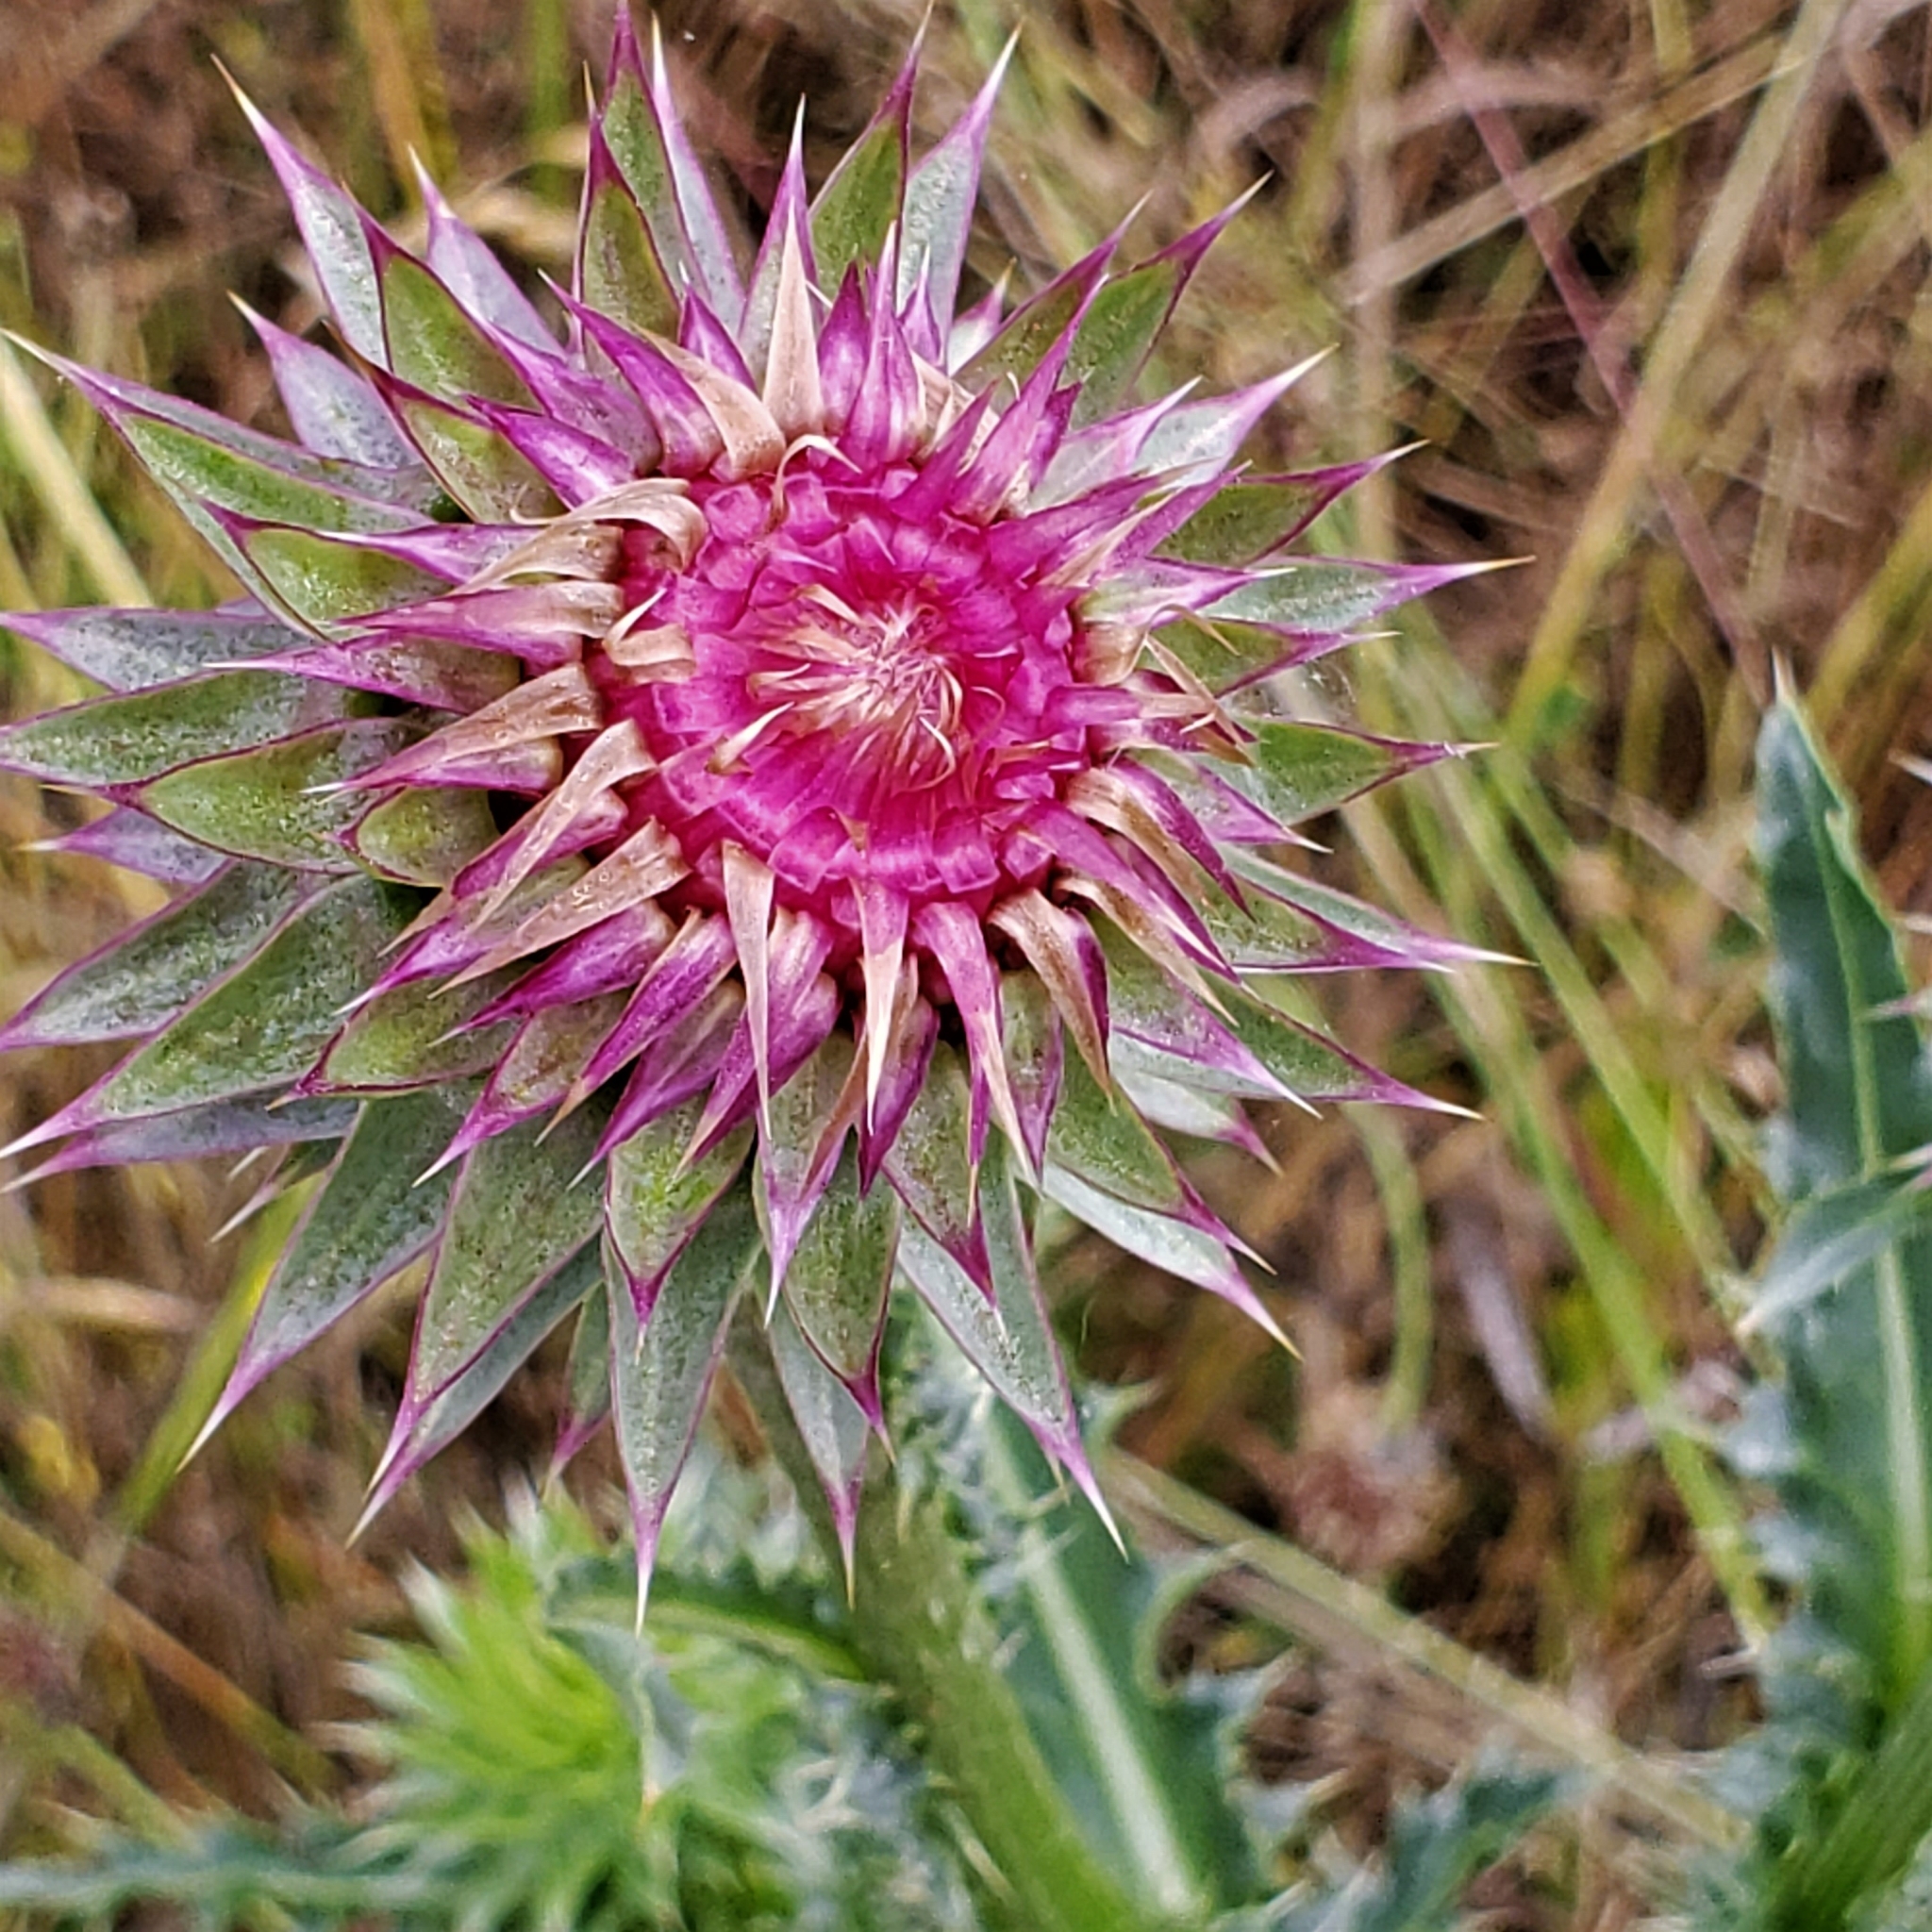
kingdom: Plantae
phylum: Tracheophyta
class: Magnoliopsida
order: Asterales
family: Asteraceae
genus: Carduus
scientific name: Carduus nutans
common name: Musk thistle
